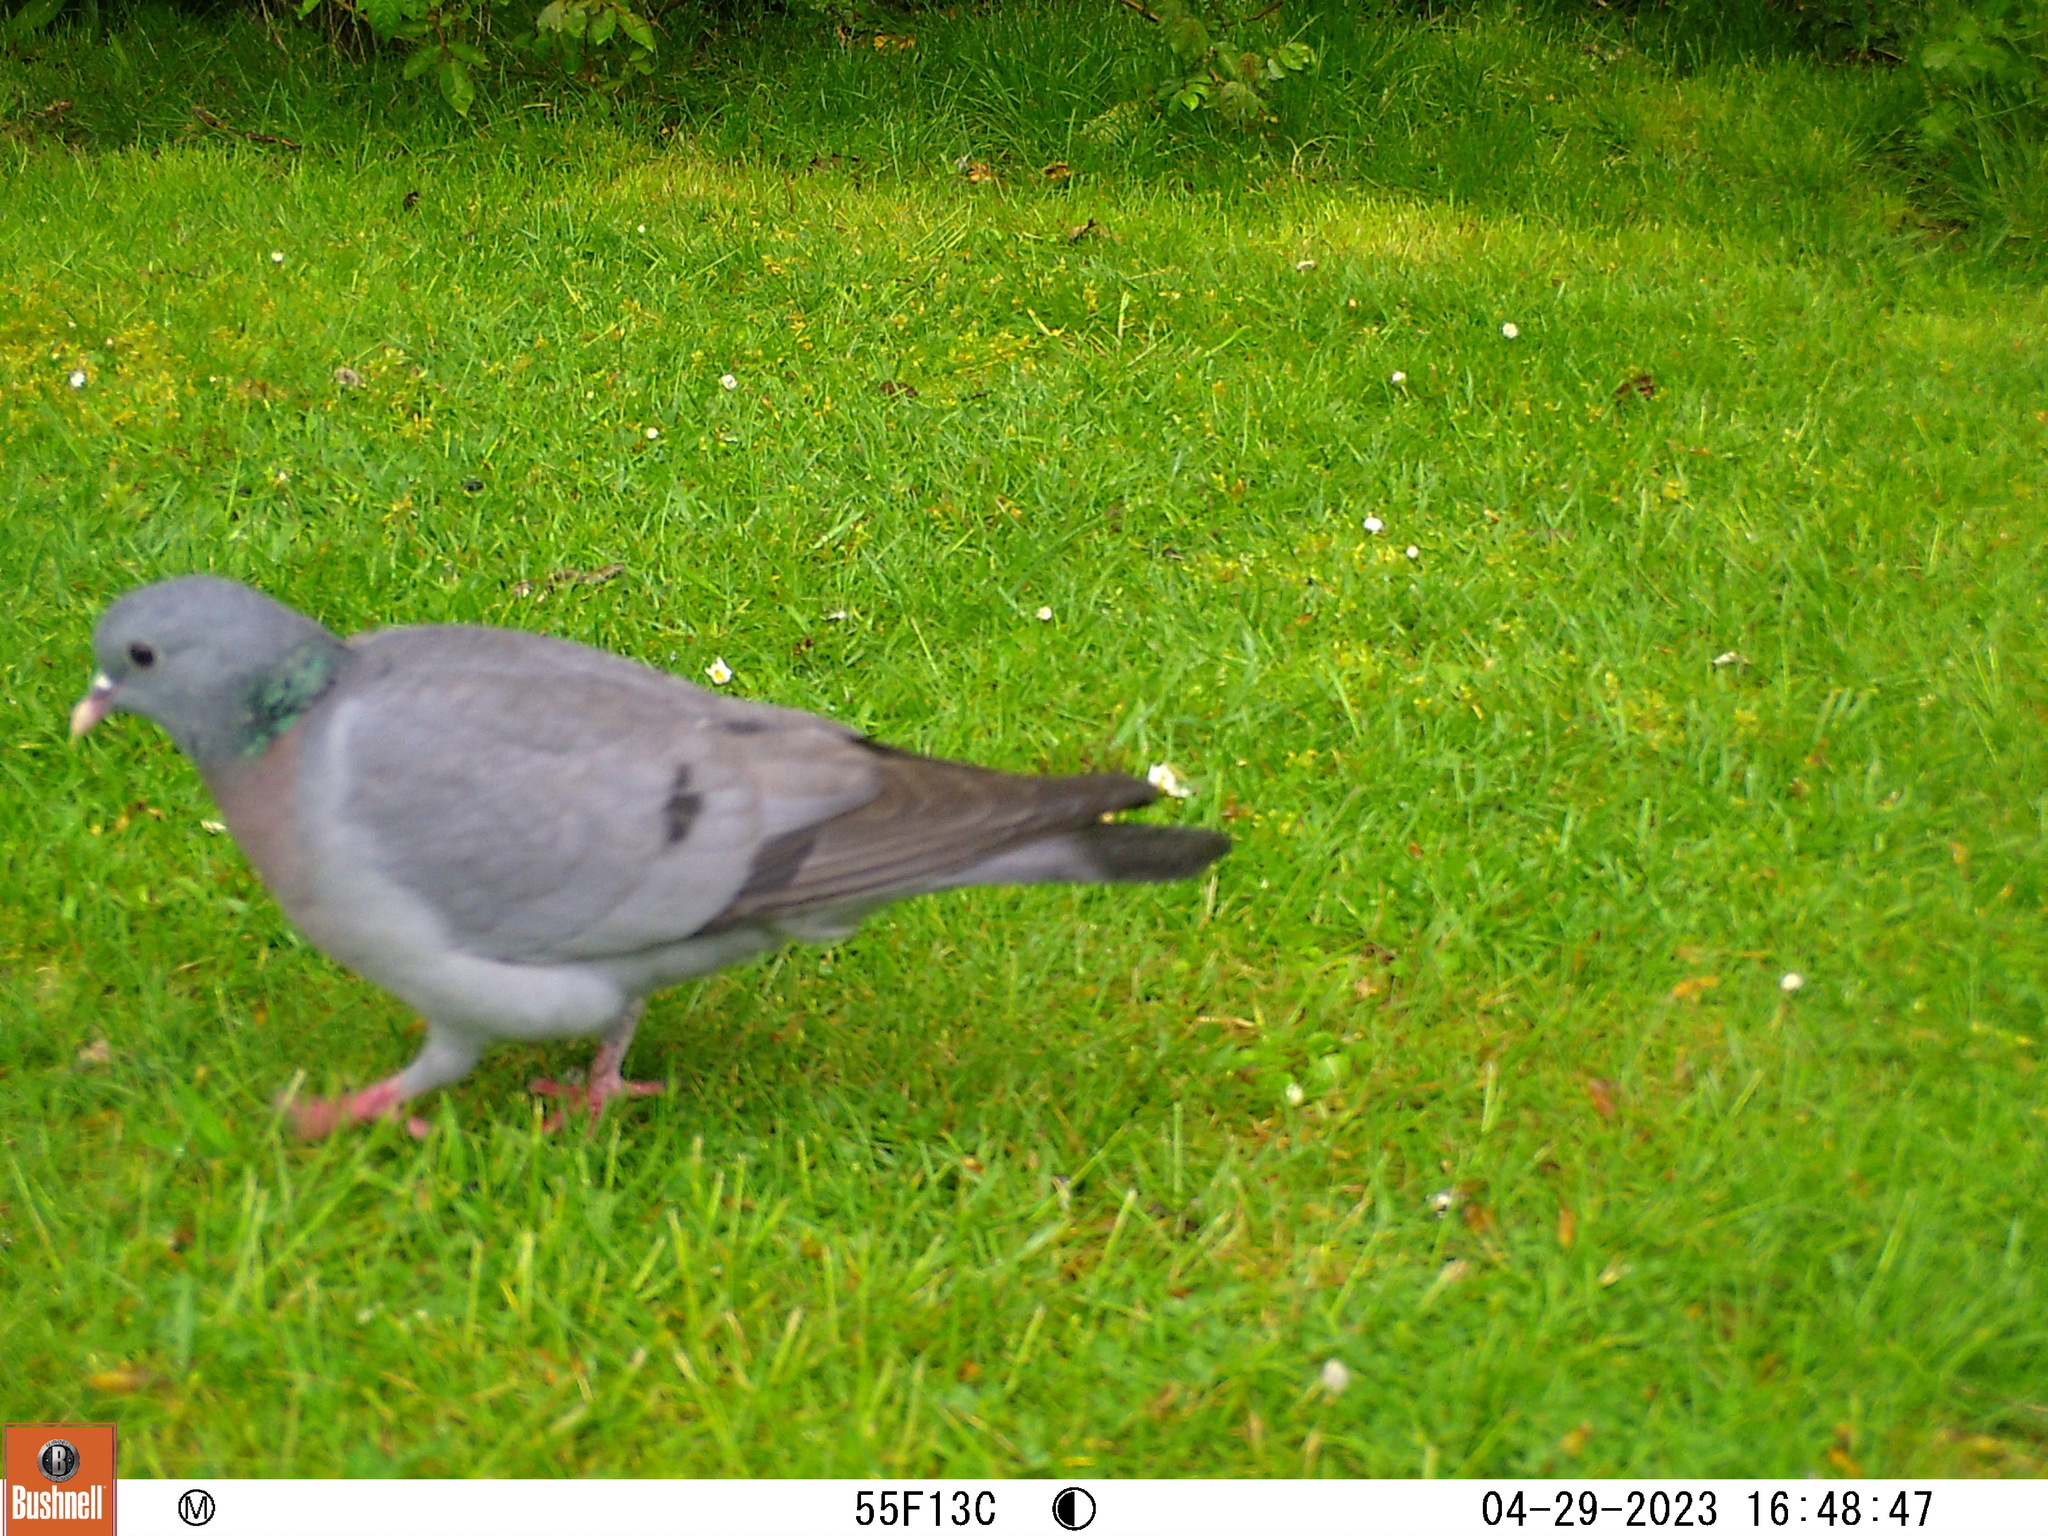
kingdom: Animalia
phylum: Chordata
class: Aves
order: Columbiformes
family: Columbidae
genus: Columba
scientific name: Columba oenas
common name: Stock dove
